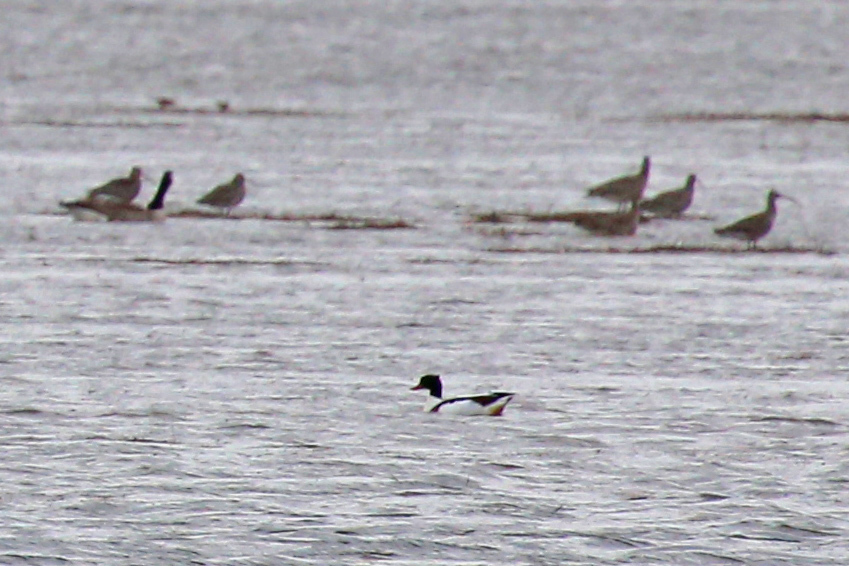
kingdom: Animalia
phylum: Chordata
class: Aves
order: Anseriformes
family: Anatidae
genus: Tadorna
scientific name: Tadorna tadorna
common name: Common shelduck
